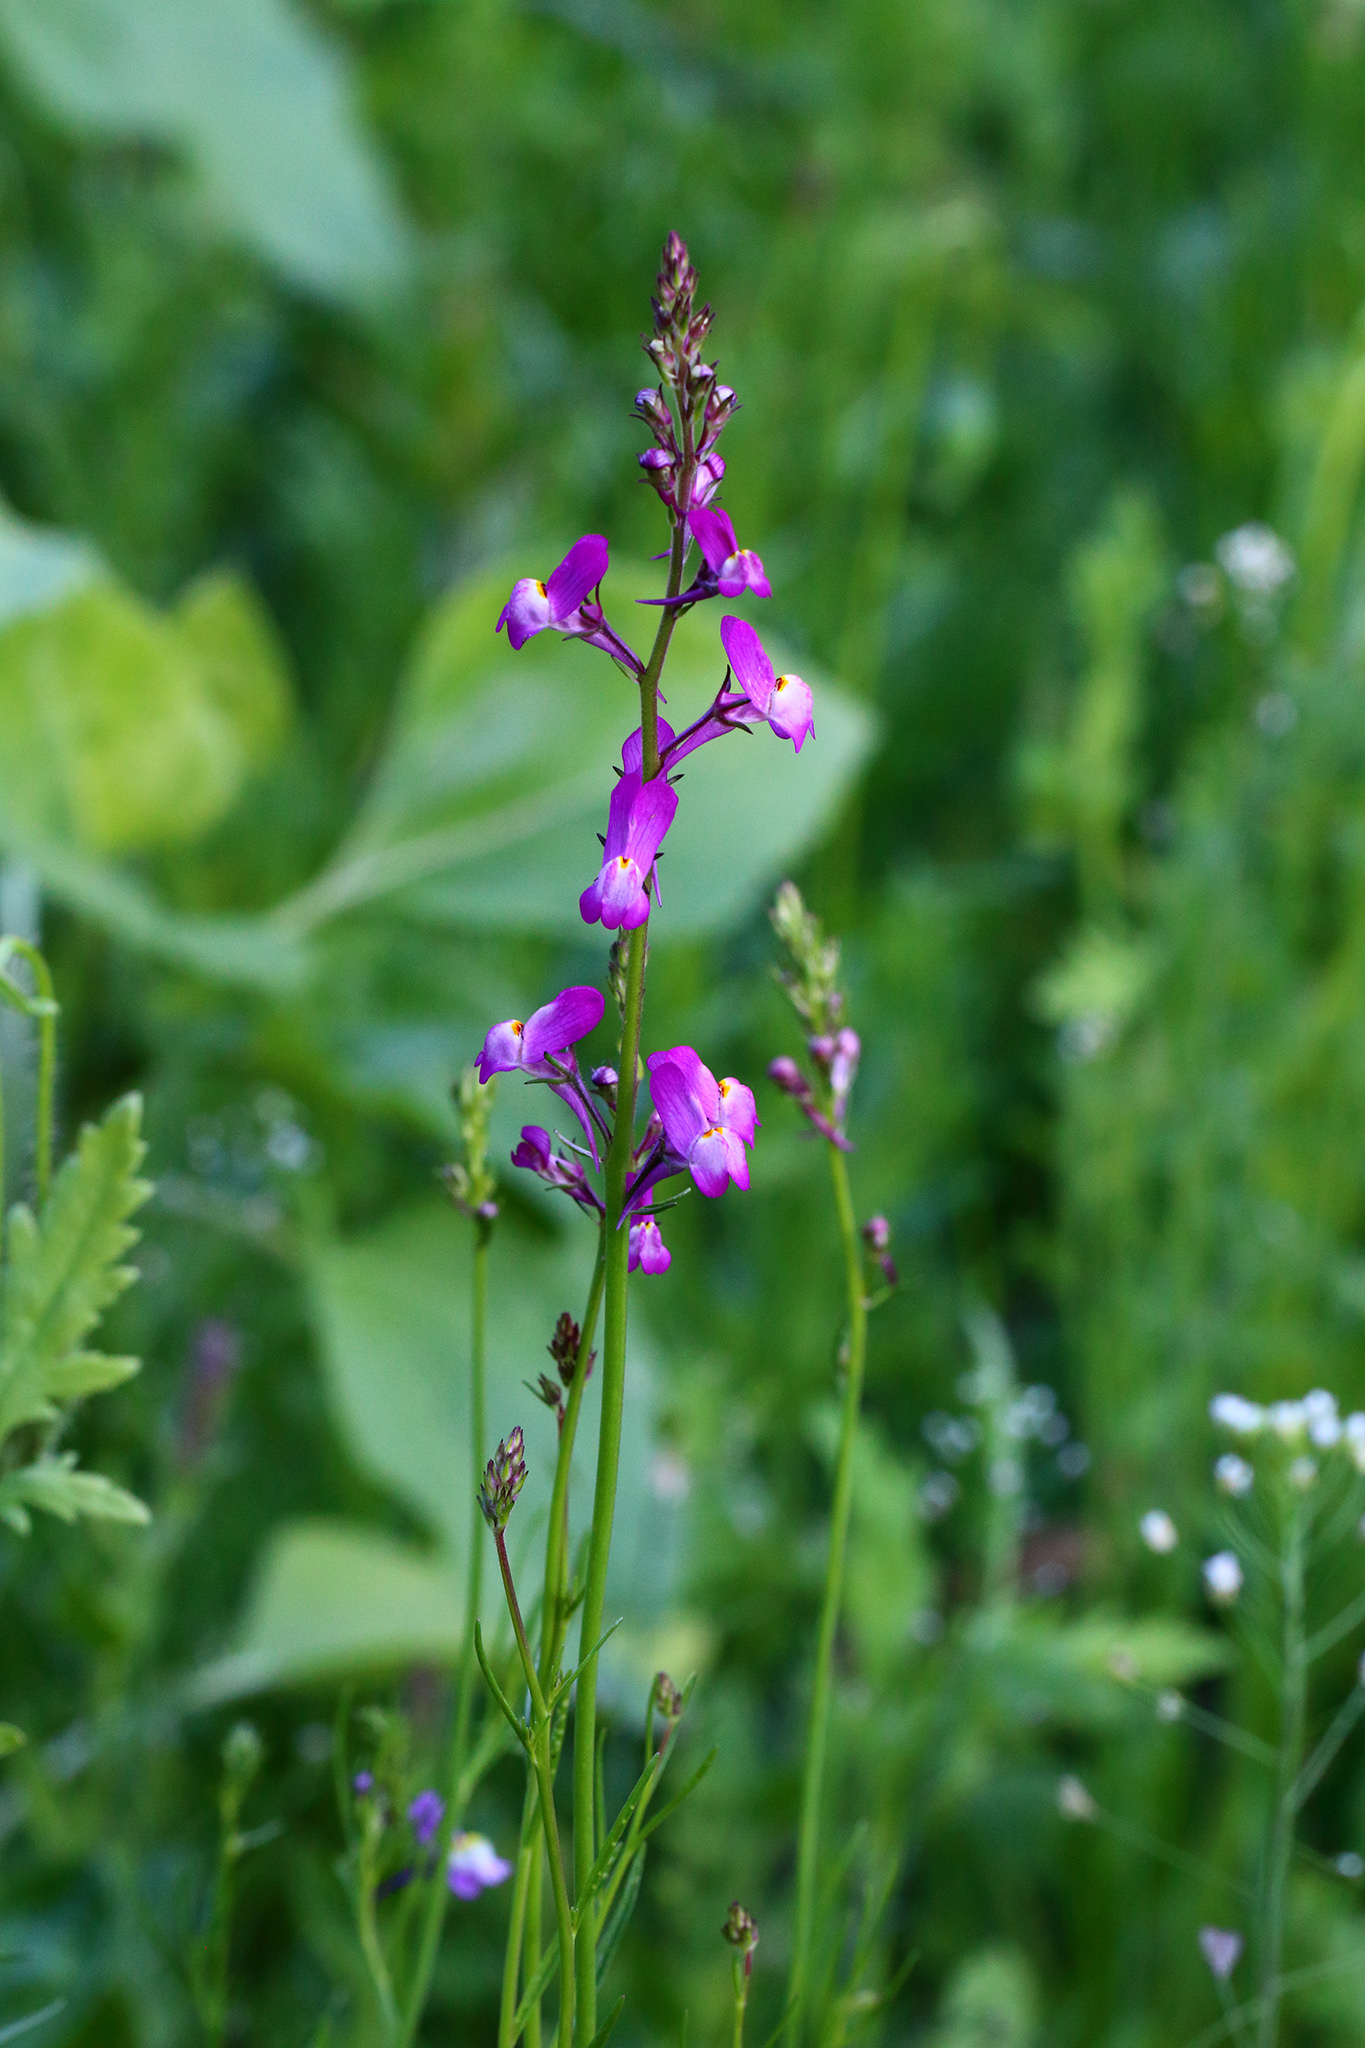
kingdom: Plantae
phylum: Tracheophyta
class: Magnoliopsida
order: Lamiales
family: Plantaginaceae
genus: Linaria
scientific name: Linaria maroccana
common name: Moroccan toadflax
